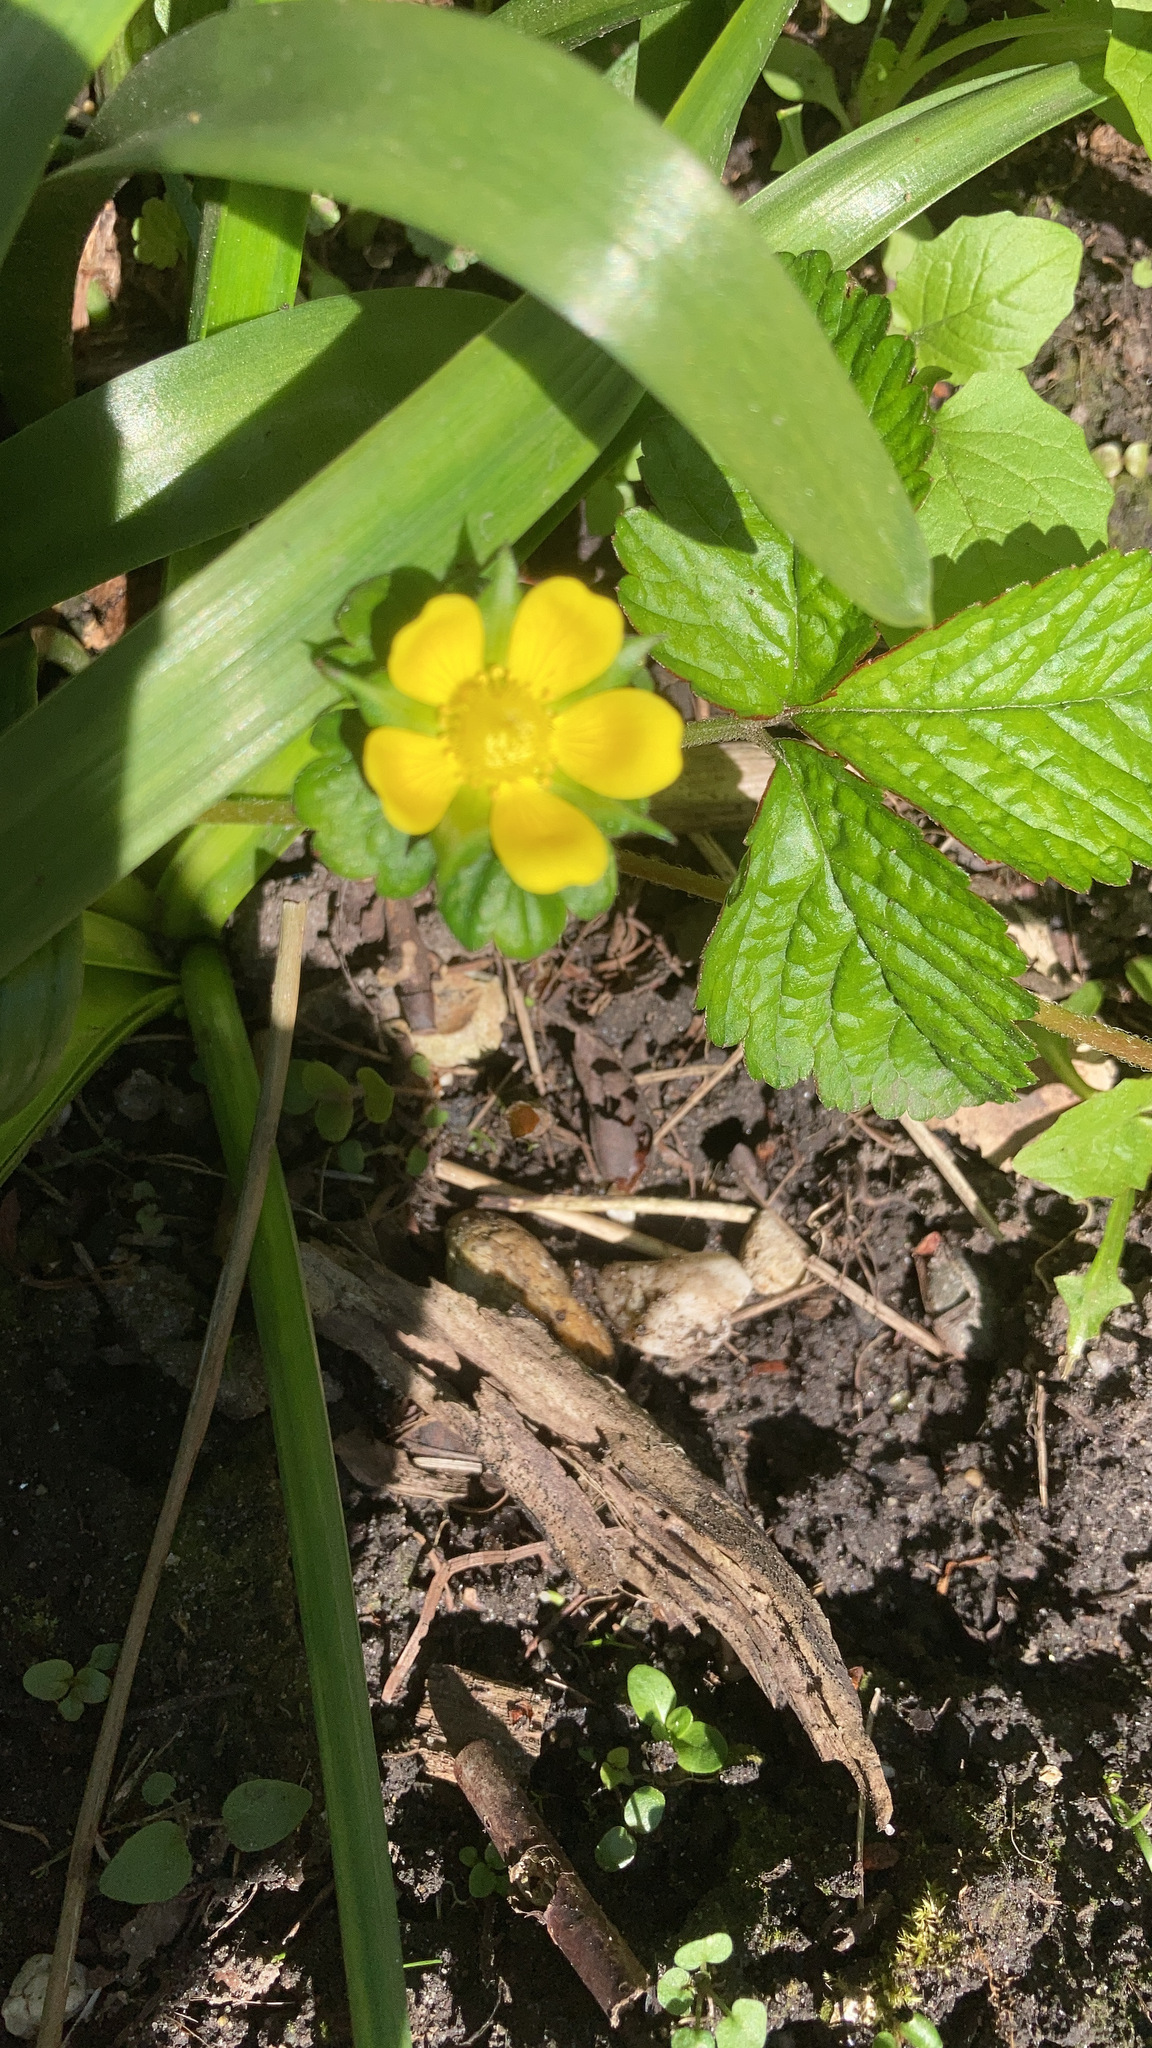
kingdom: Plantae
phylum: Tracheophyta
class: Magnoliopsida
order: Rosales
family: Rosaceae
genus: Potentilla
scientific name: Potentilla indica
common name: Yellow-flowered strawberry
